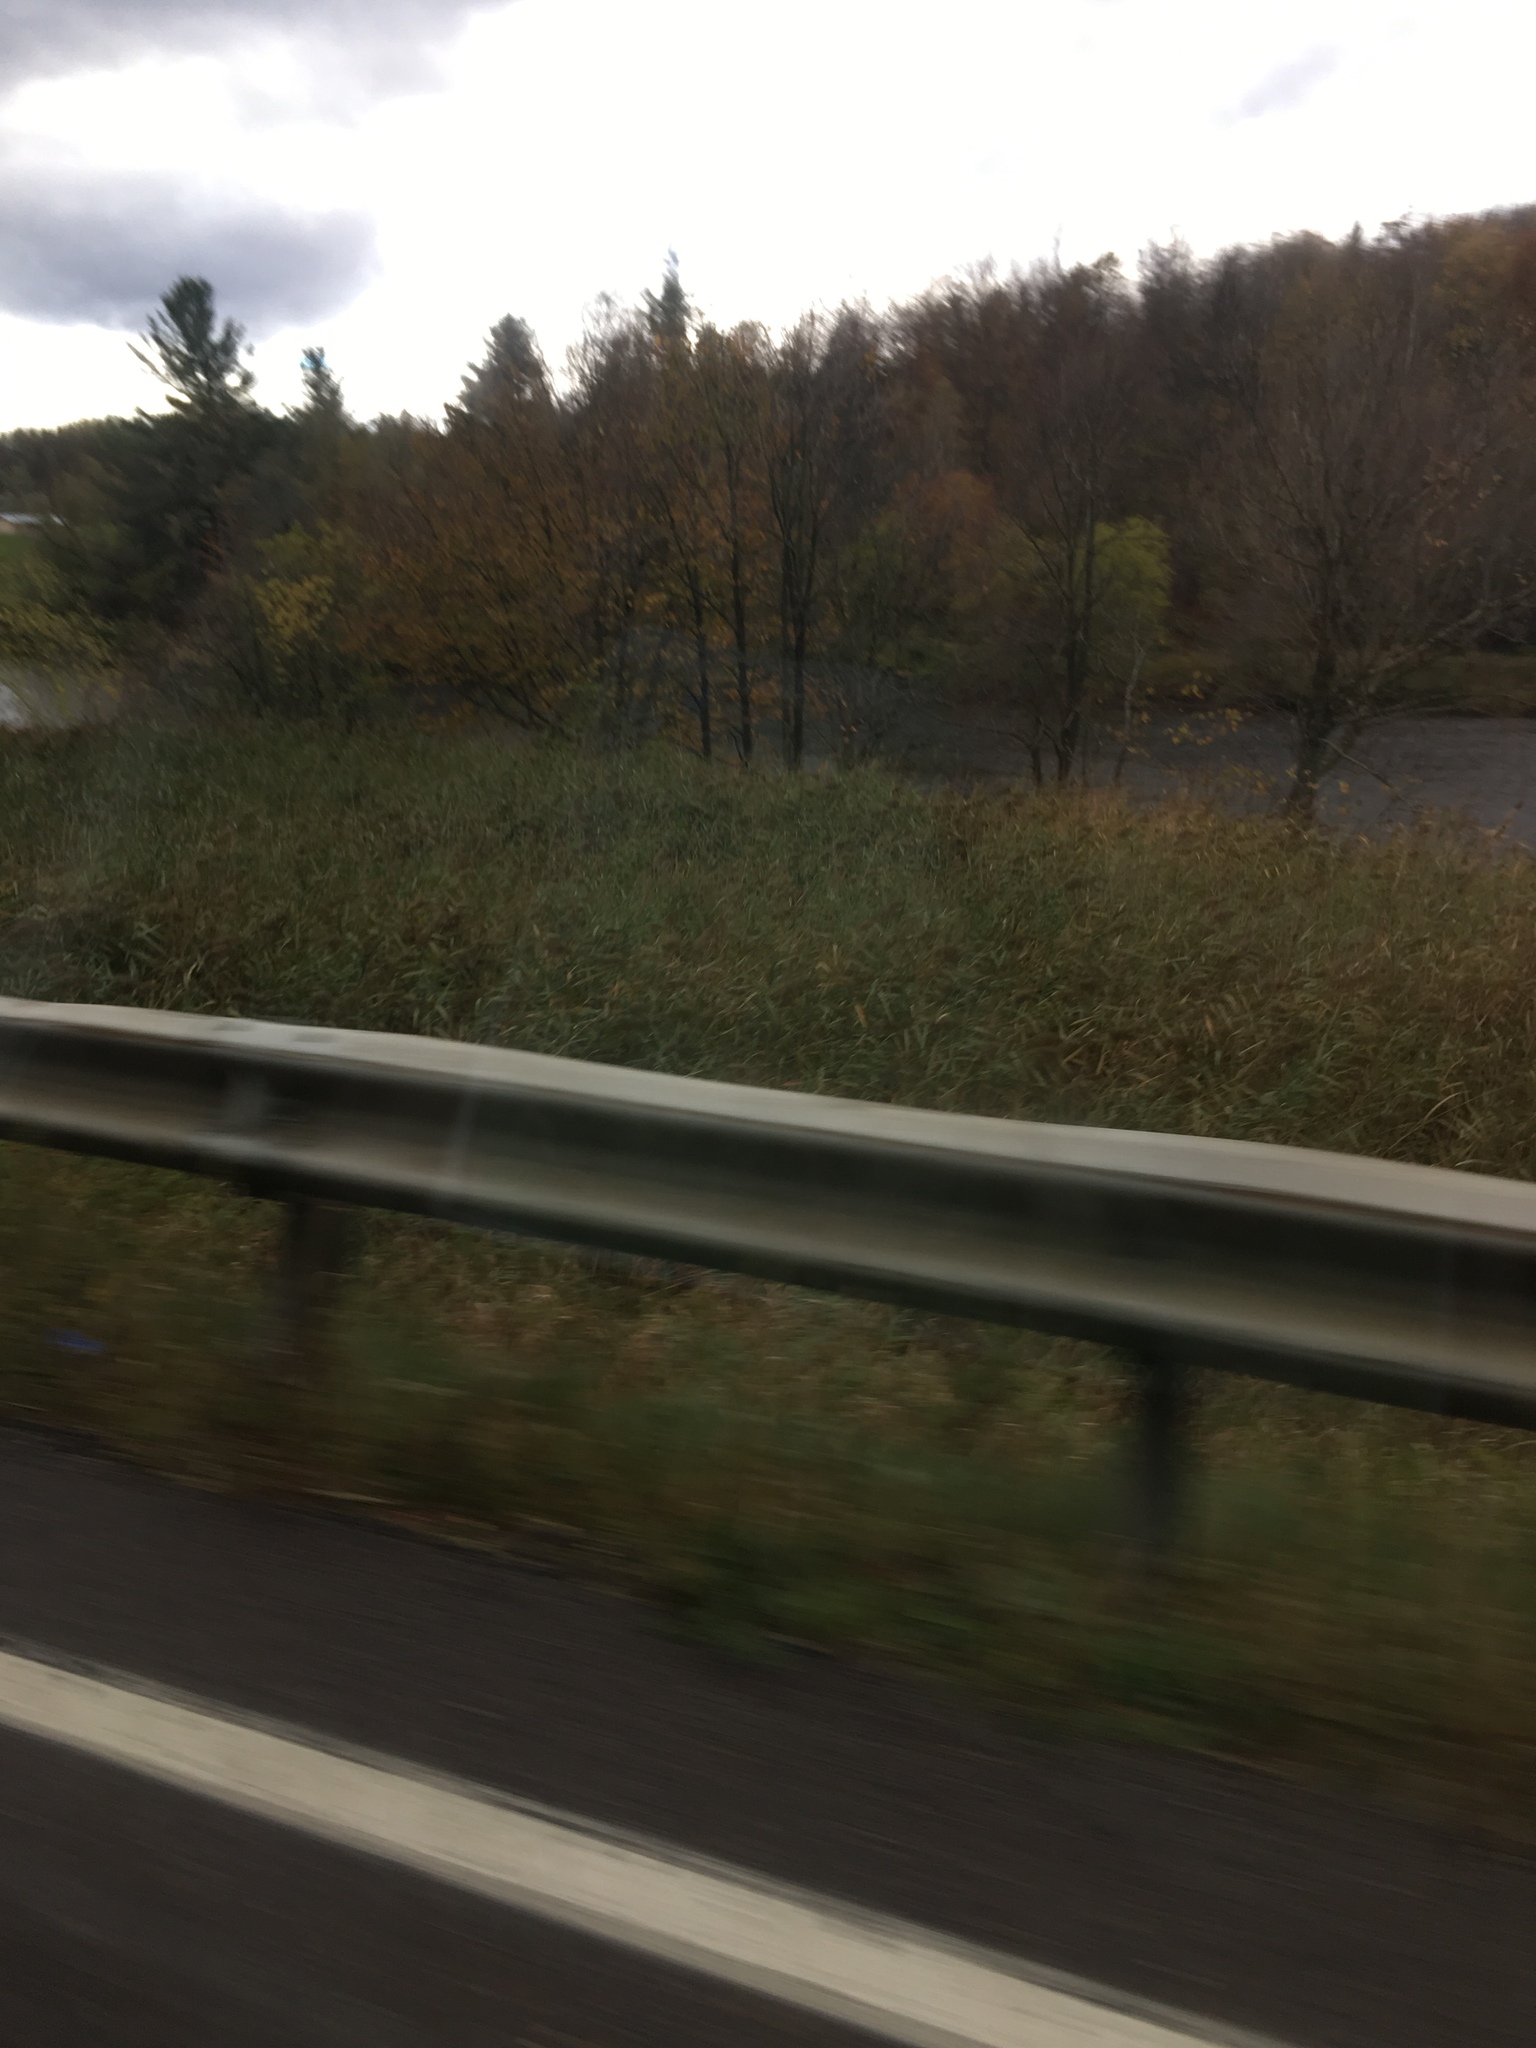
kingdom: Plantae
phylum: Tracheophyta
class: Liliopsida
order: Poales
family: Poaceae
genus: Phragmites
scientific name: Phragmites australis
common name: Common reed
